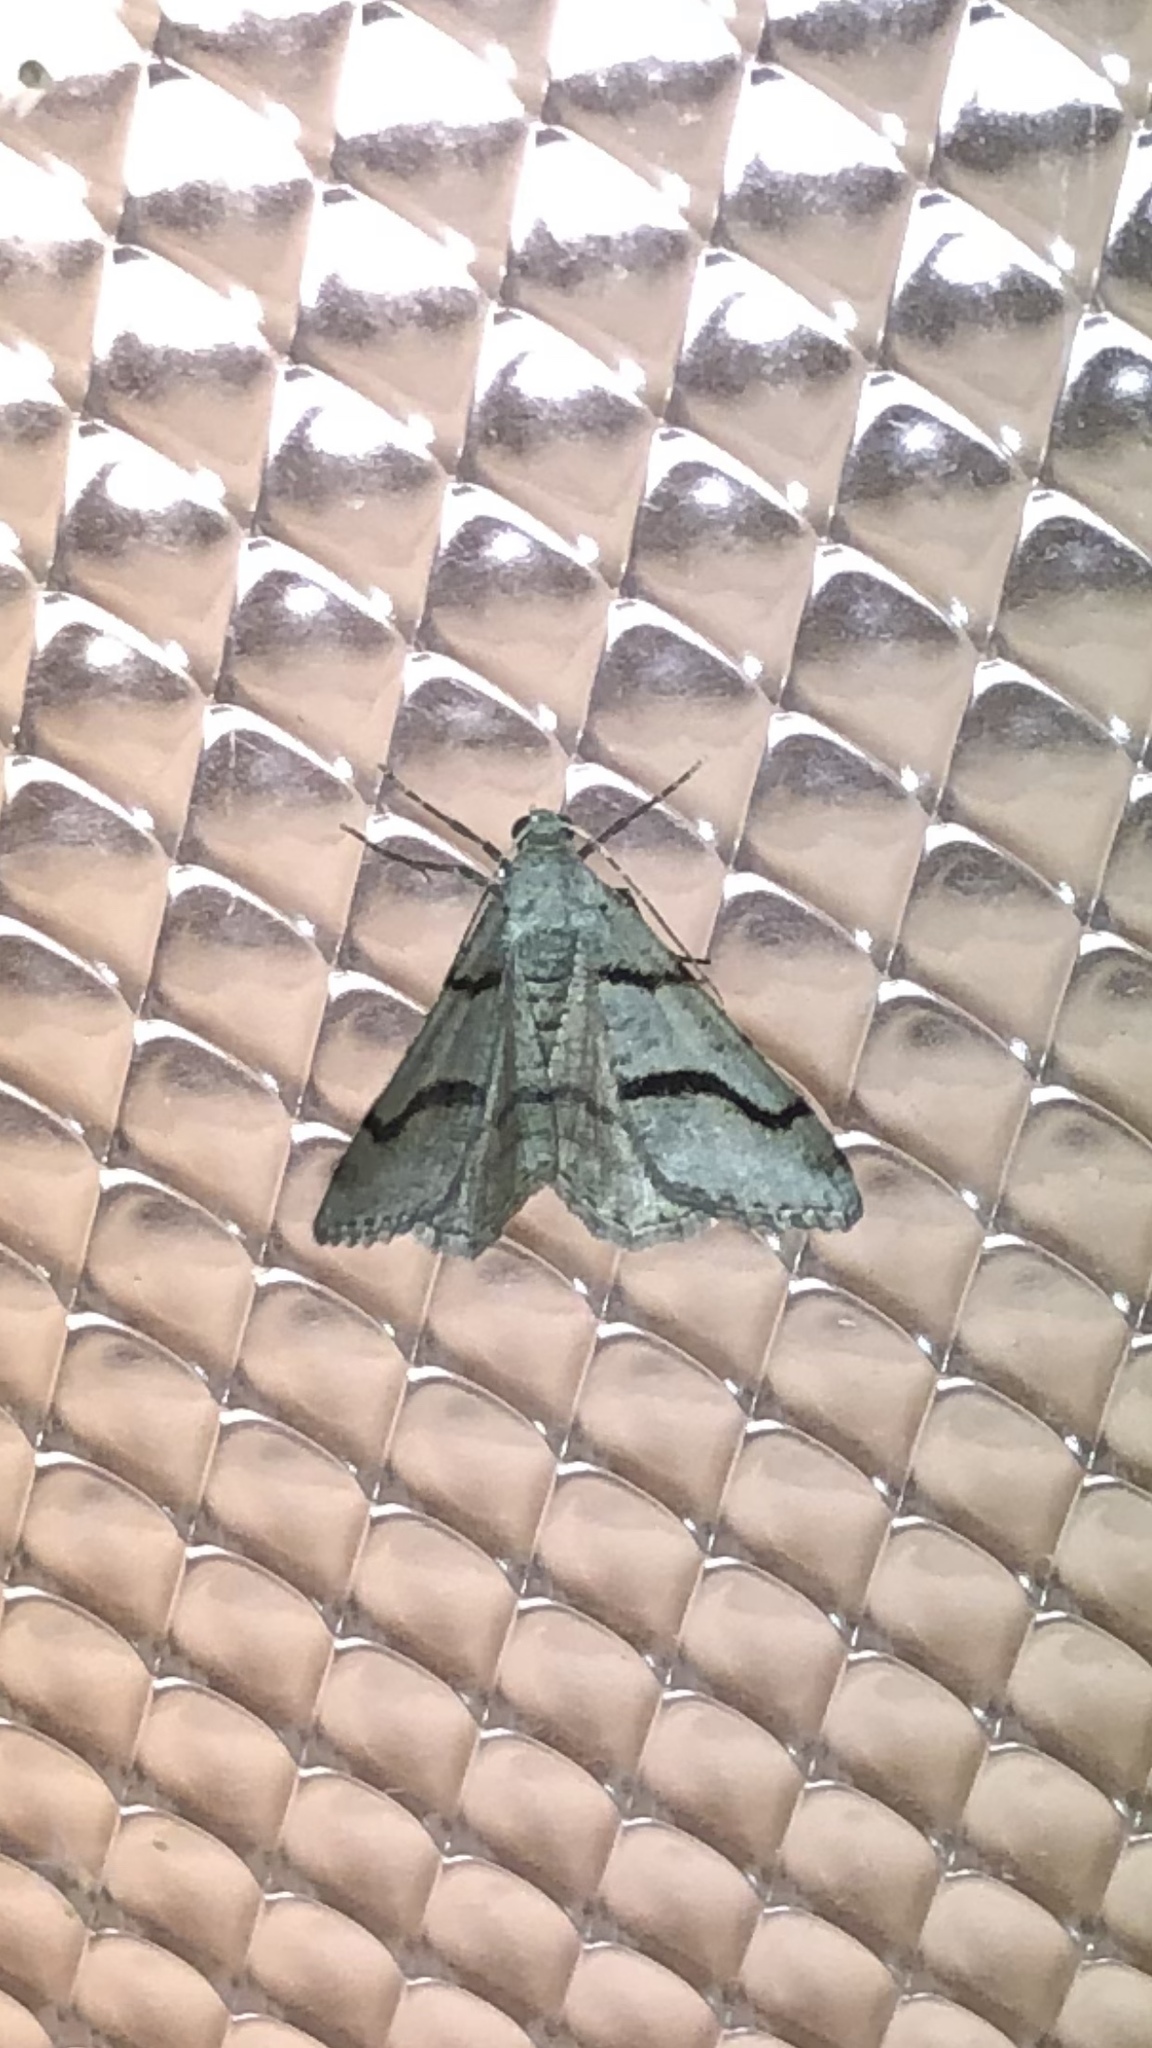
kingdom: Animalia
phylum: Arthropoda
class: Insecta
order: Lepidoptera
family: Geometridae
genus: Digrammia
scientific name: Digrammia continuata
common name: Curve-lined angle
